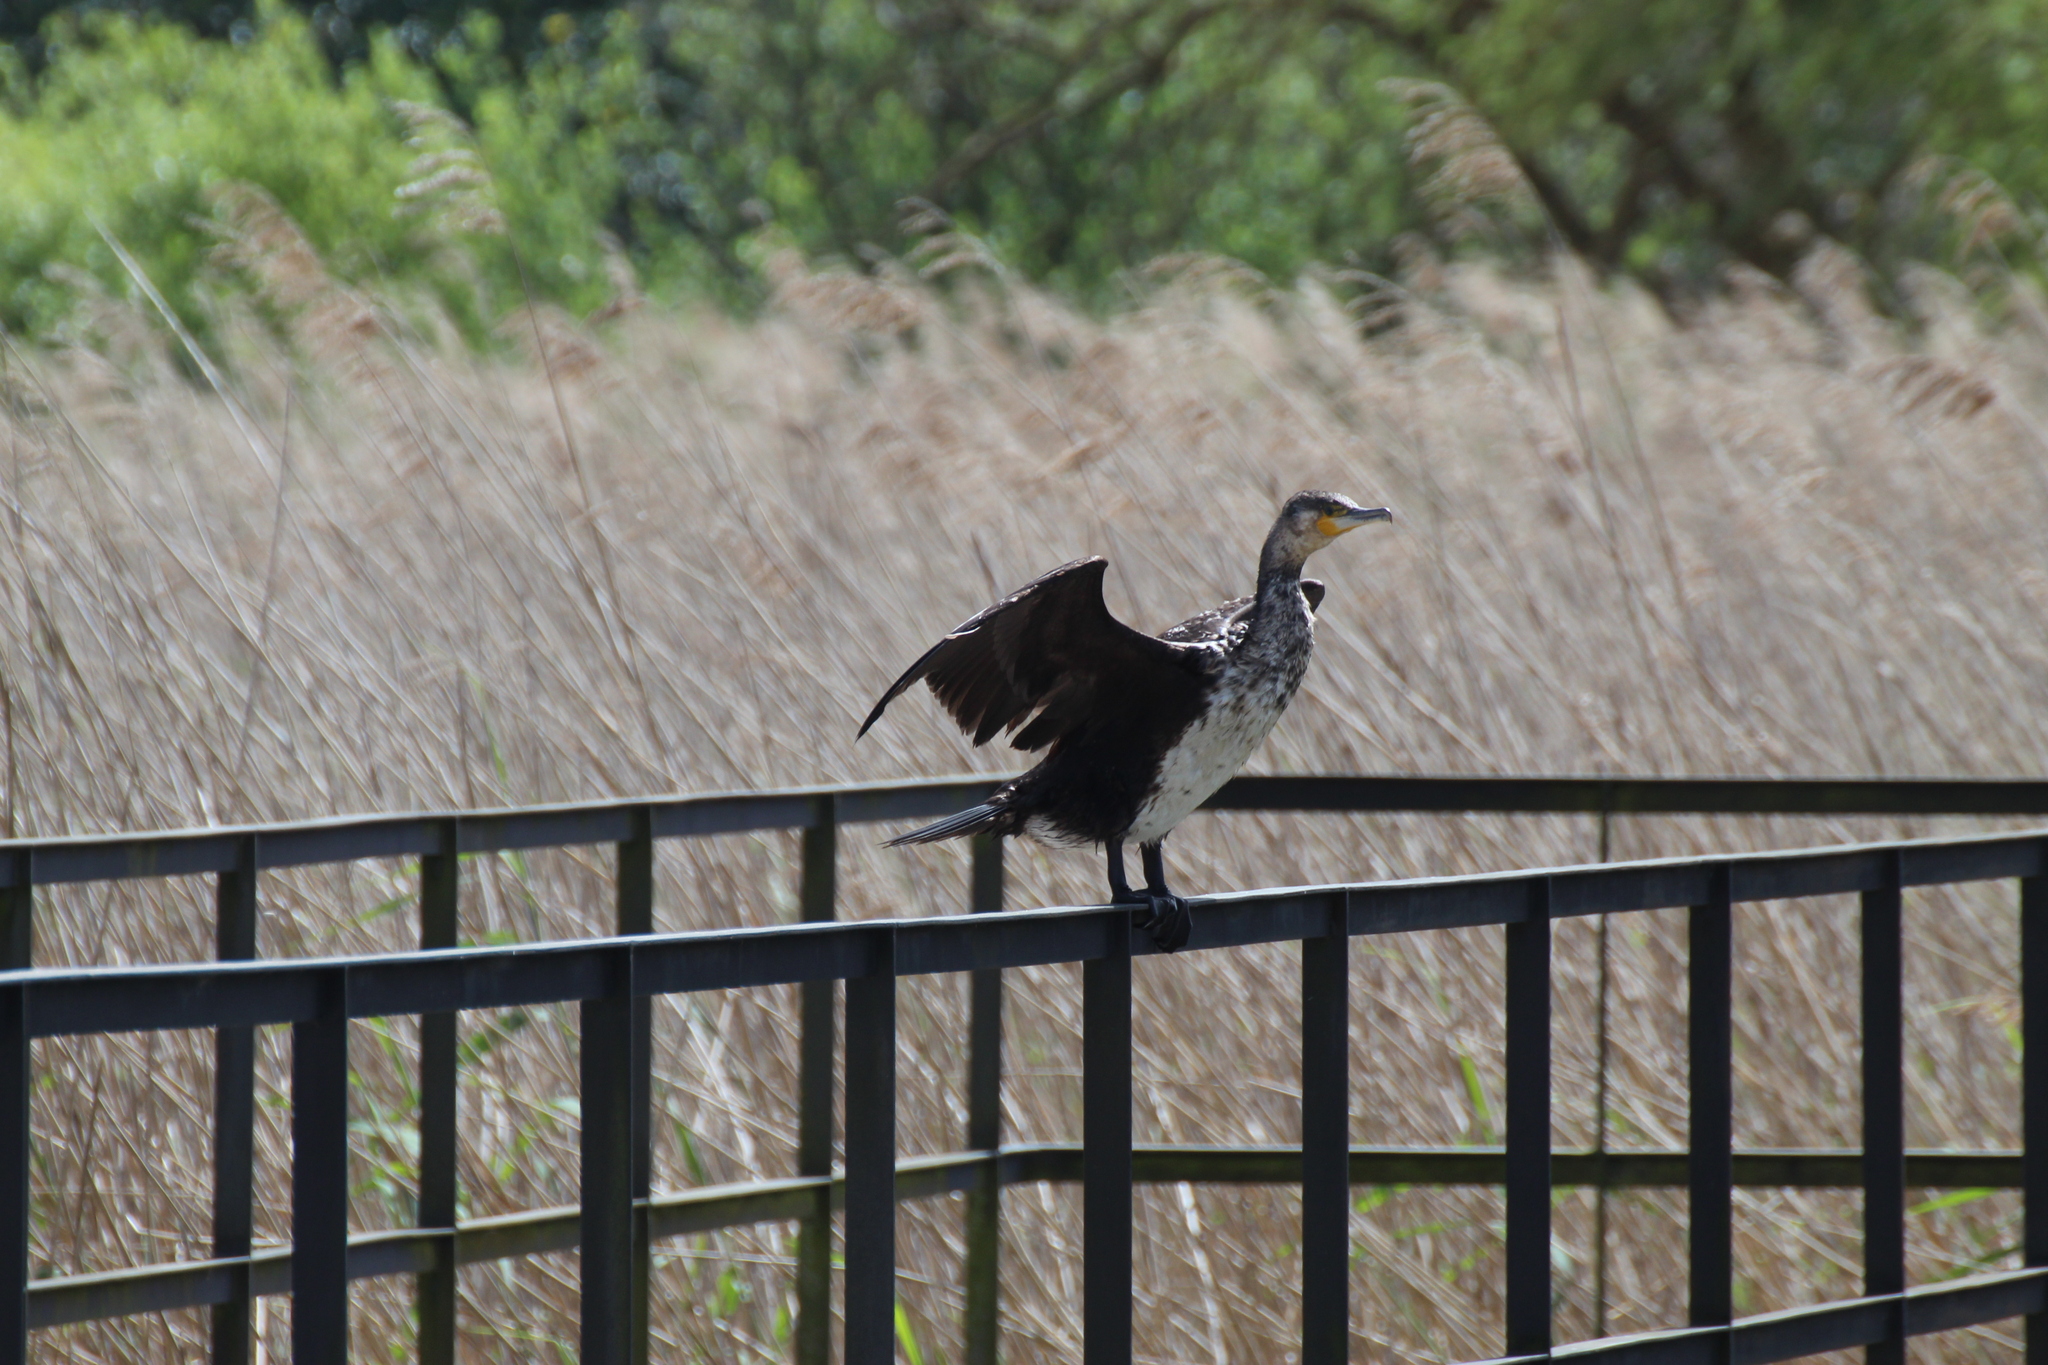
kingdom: Animalia
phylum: Chordata
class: Aves
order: Suliformes
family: Phalacrocoracidae
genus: Phalacrocorax
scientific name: Phalacrocorax carbo
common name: Great cormorant
